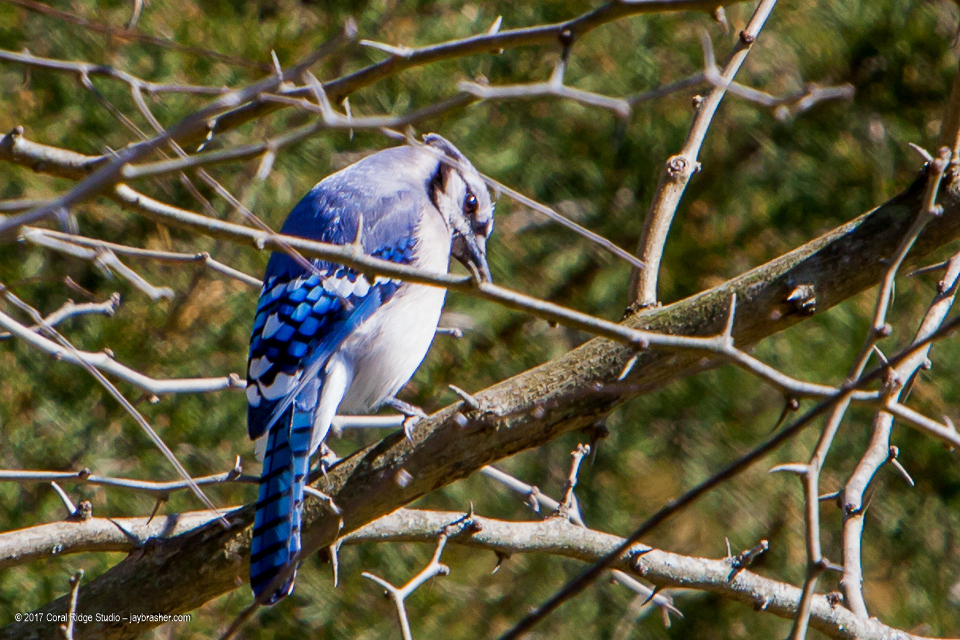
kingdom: Animalia
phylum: Chordata
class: Aves
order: Passeriformes
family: Corvidae
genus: Cyanocitta
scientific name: Cyanocitta cristata
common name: Blue jay
